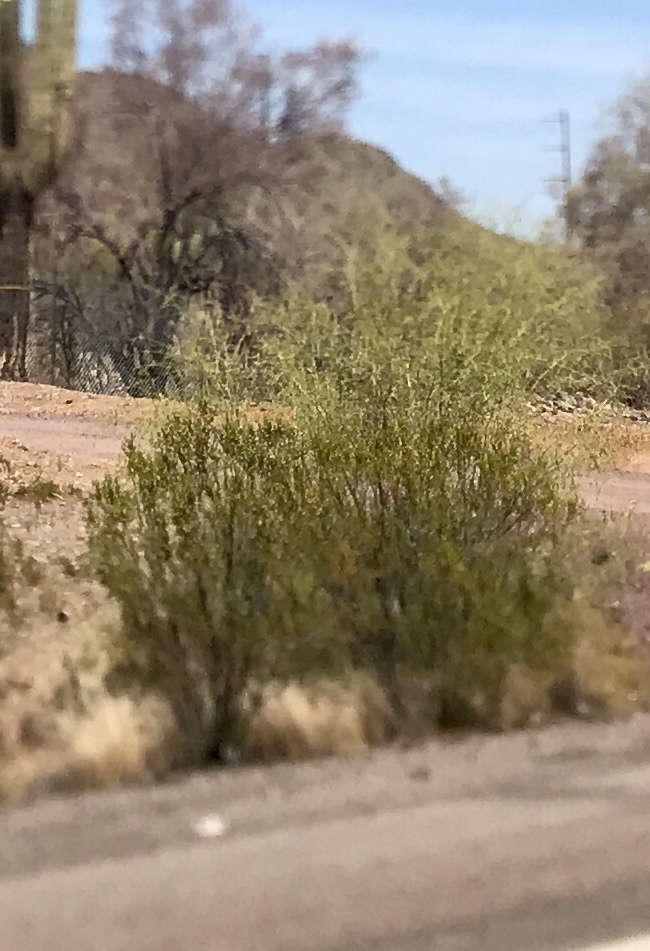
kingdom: Plantae
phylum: Tracheophyta
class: Magnoliopsida
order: Zygophyllales
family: Zygophyllaceae
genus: Larrea
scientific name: Larrea tridentata
